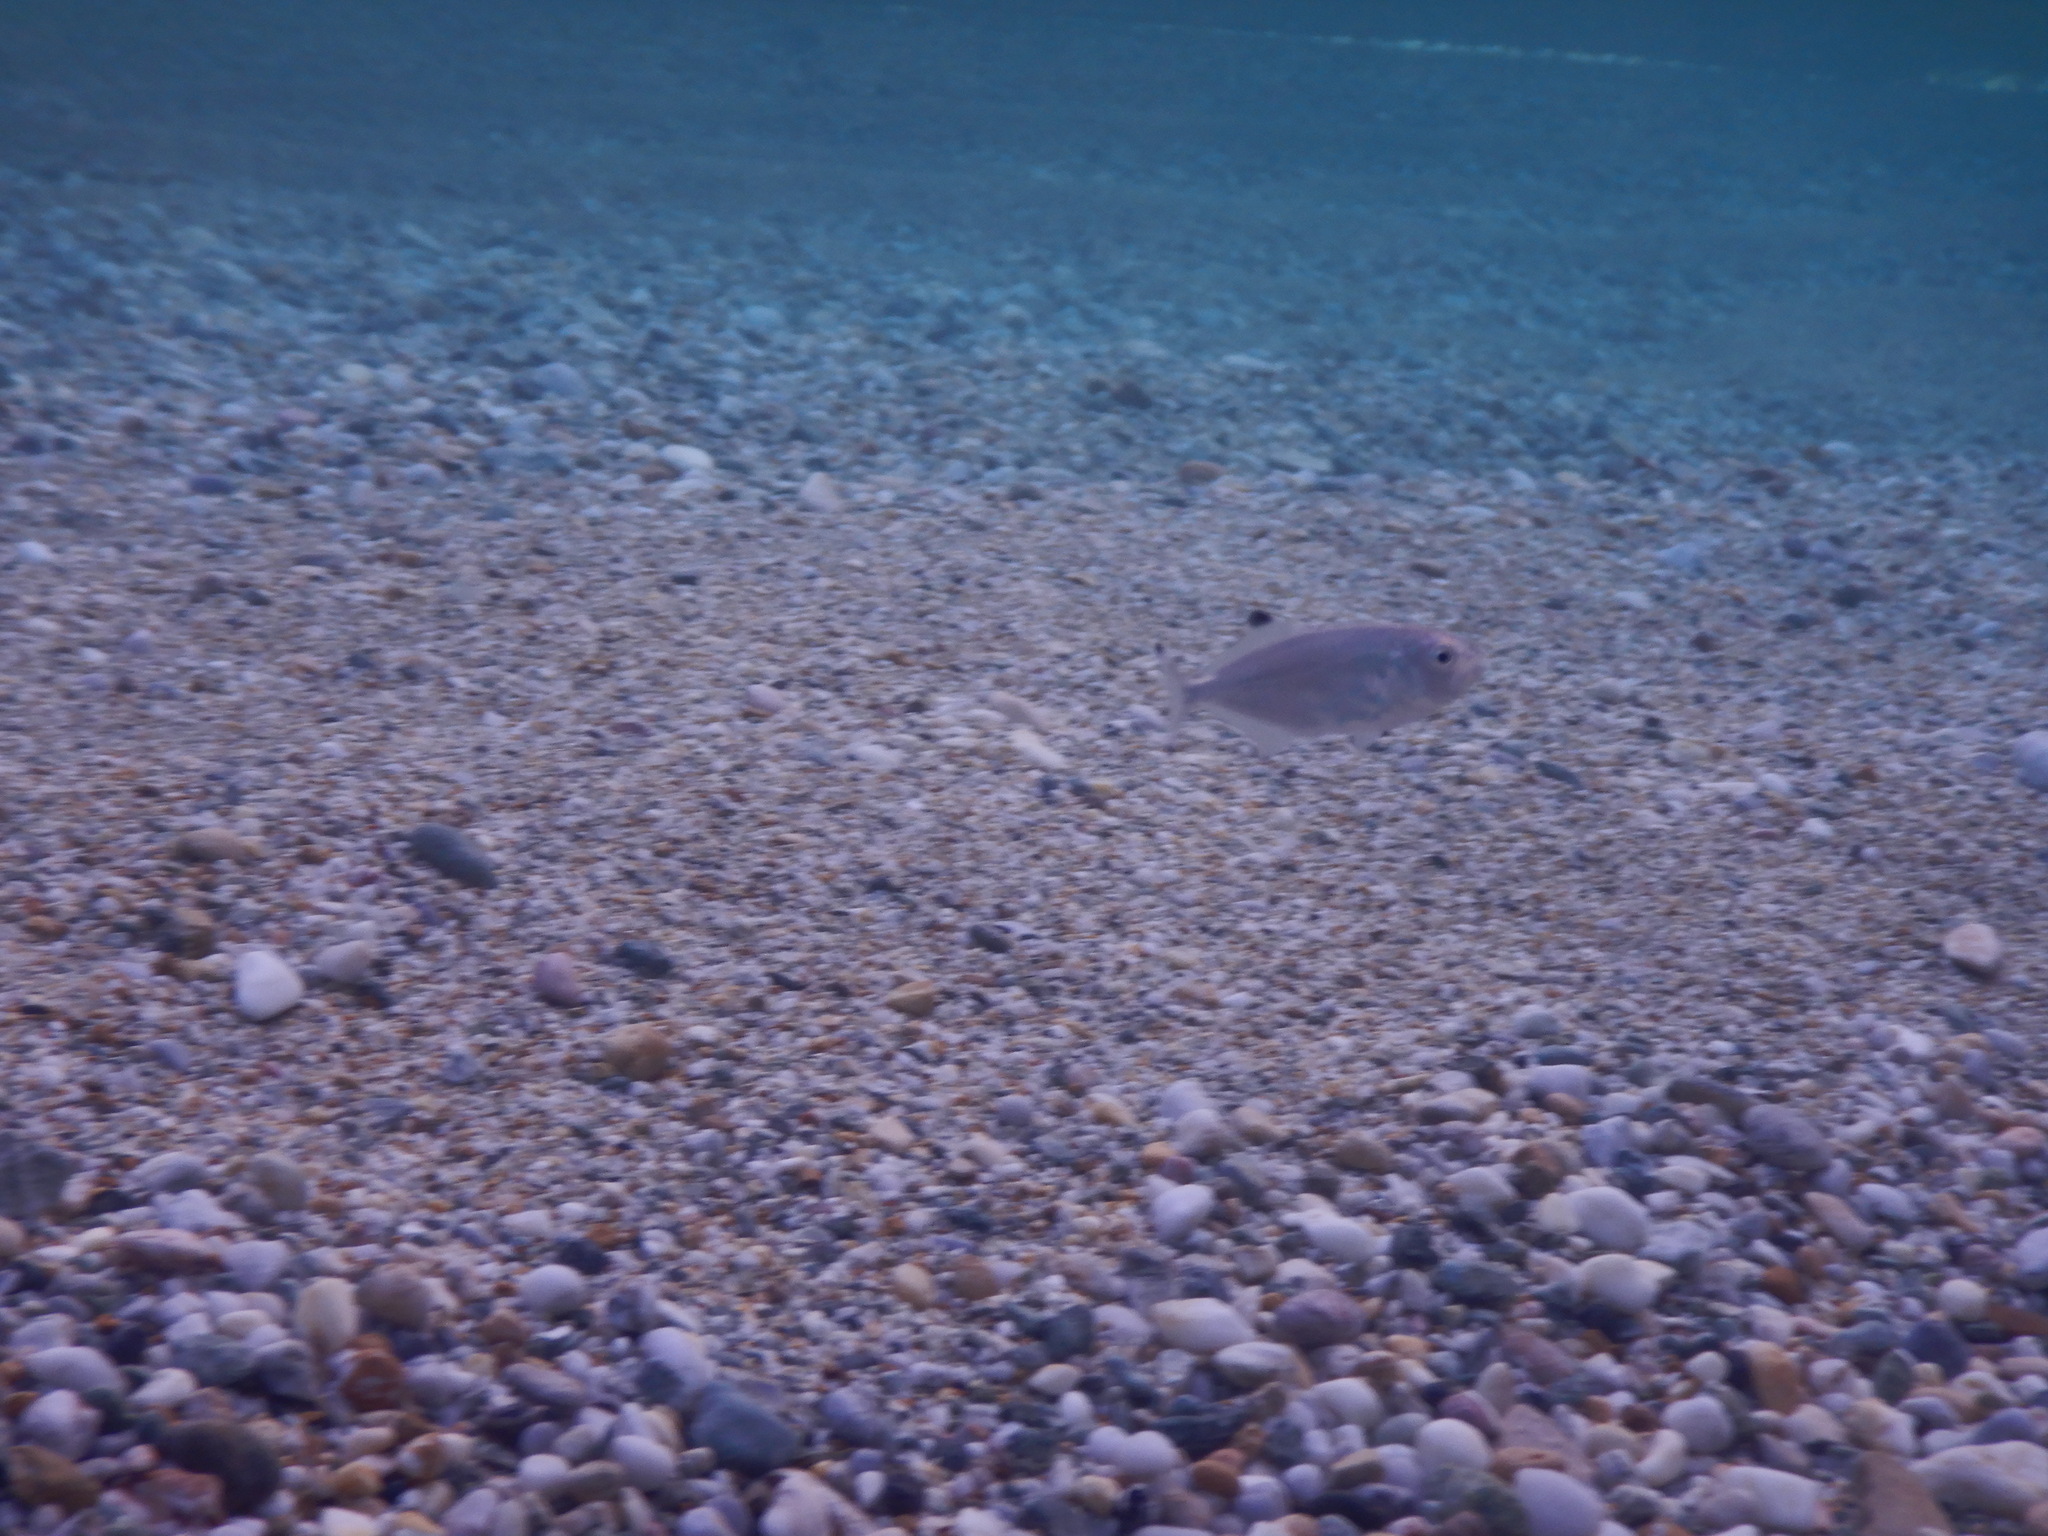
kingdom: Animalia
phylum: Chordata
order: Perciformes
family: Carangidae
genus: Trachinotus
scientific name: Trachinotus ovatus
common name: Pompano
